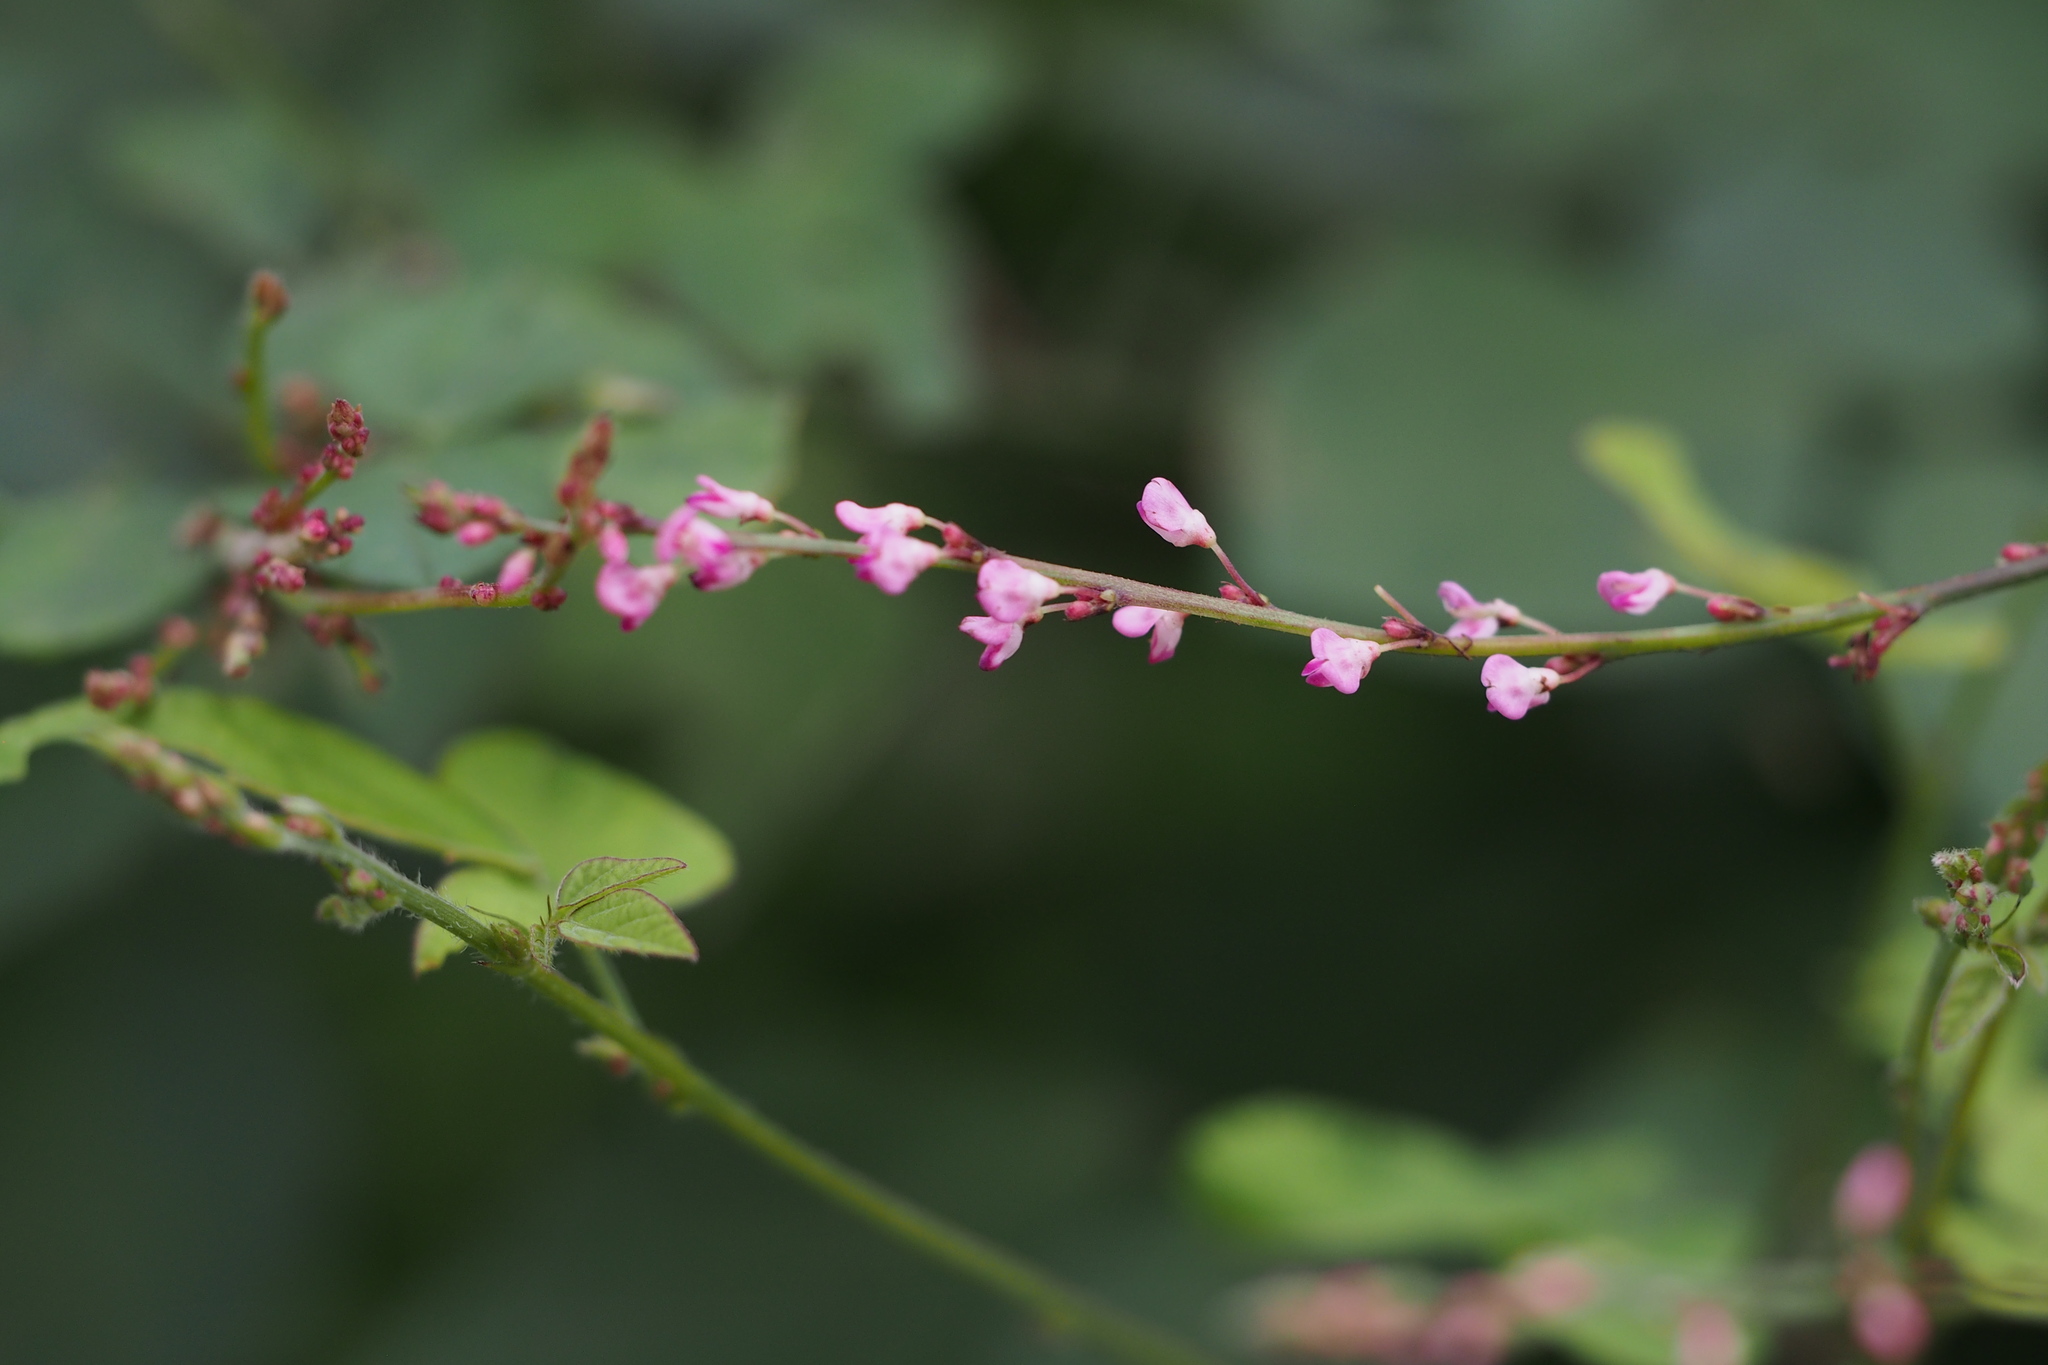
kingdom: Plantae
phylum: Tracheophyta
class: Magnoliopsida
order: Fabales
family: Fabaceae
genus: Hylodesmum
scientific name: Hylodesmum podocarpum
